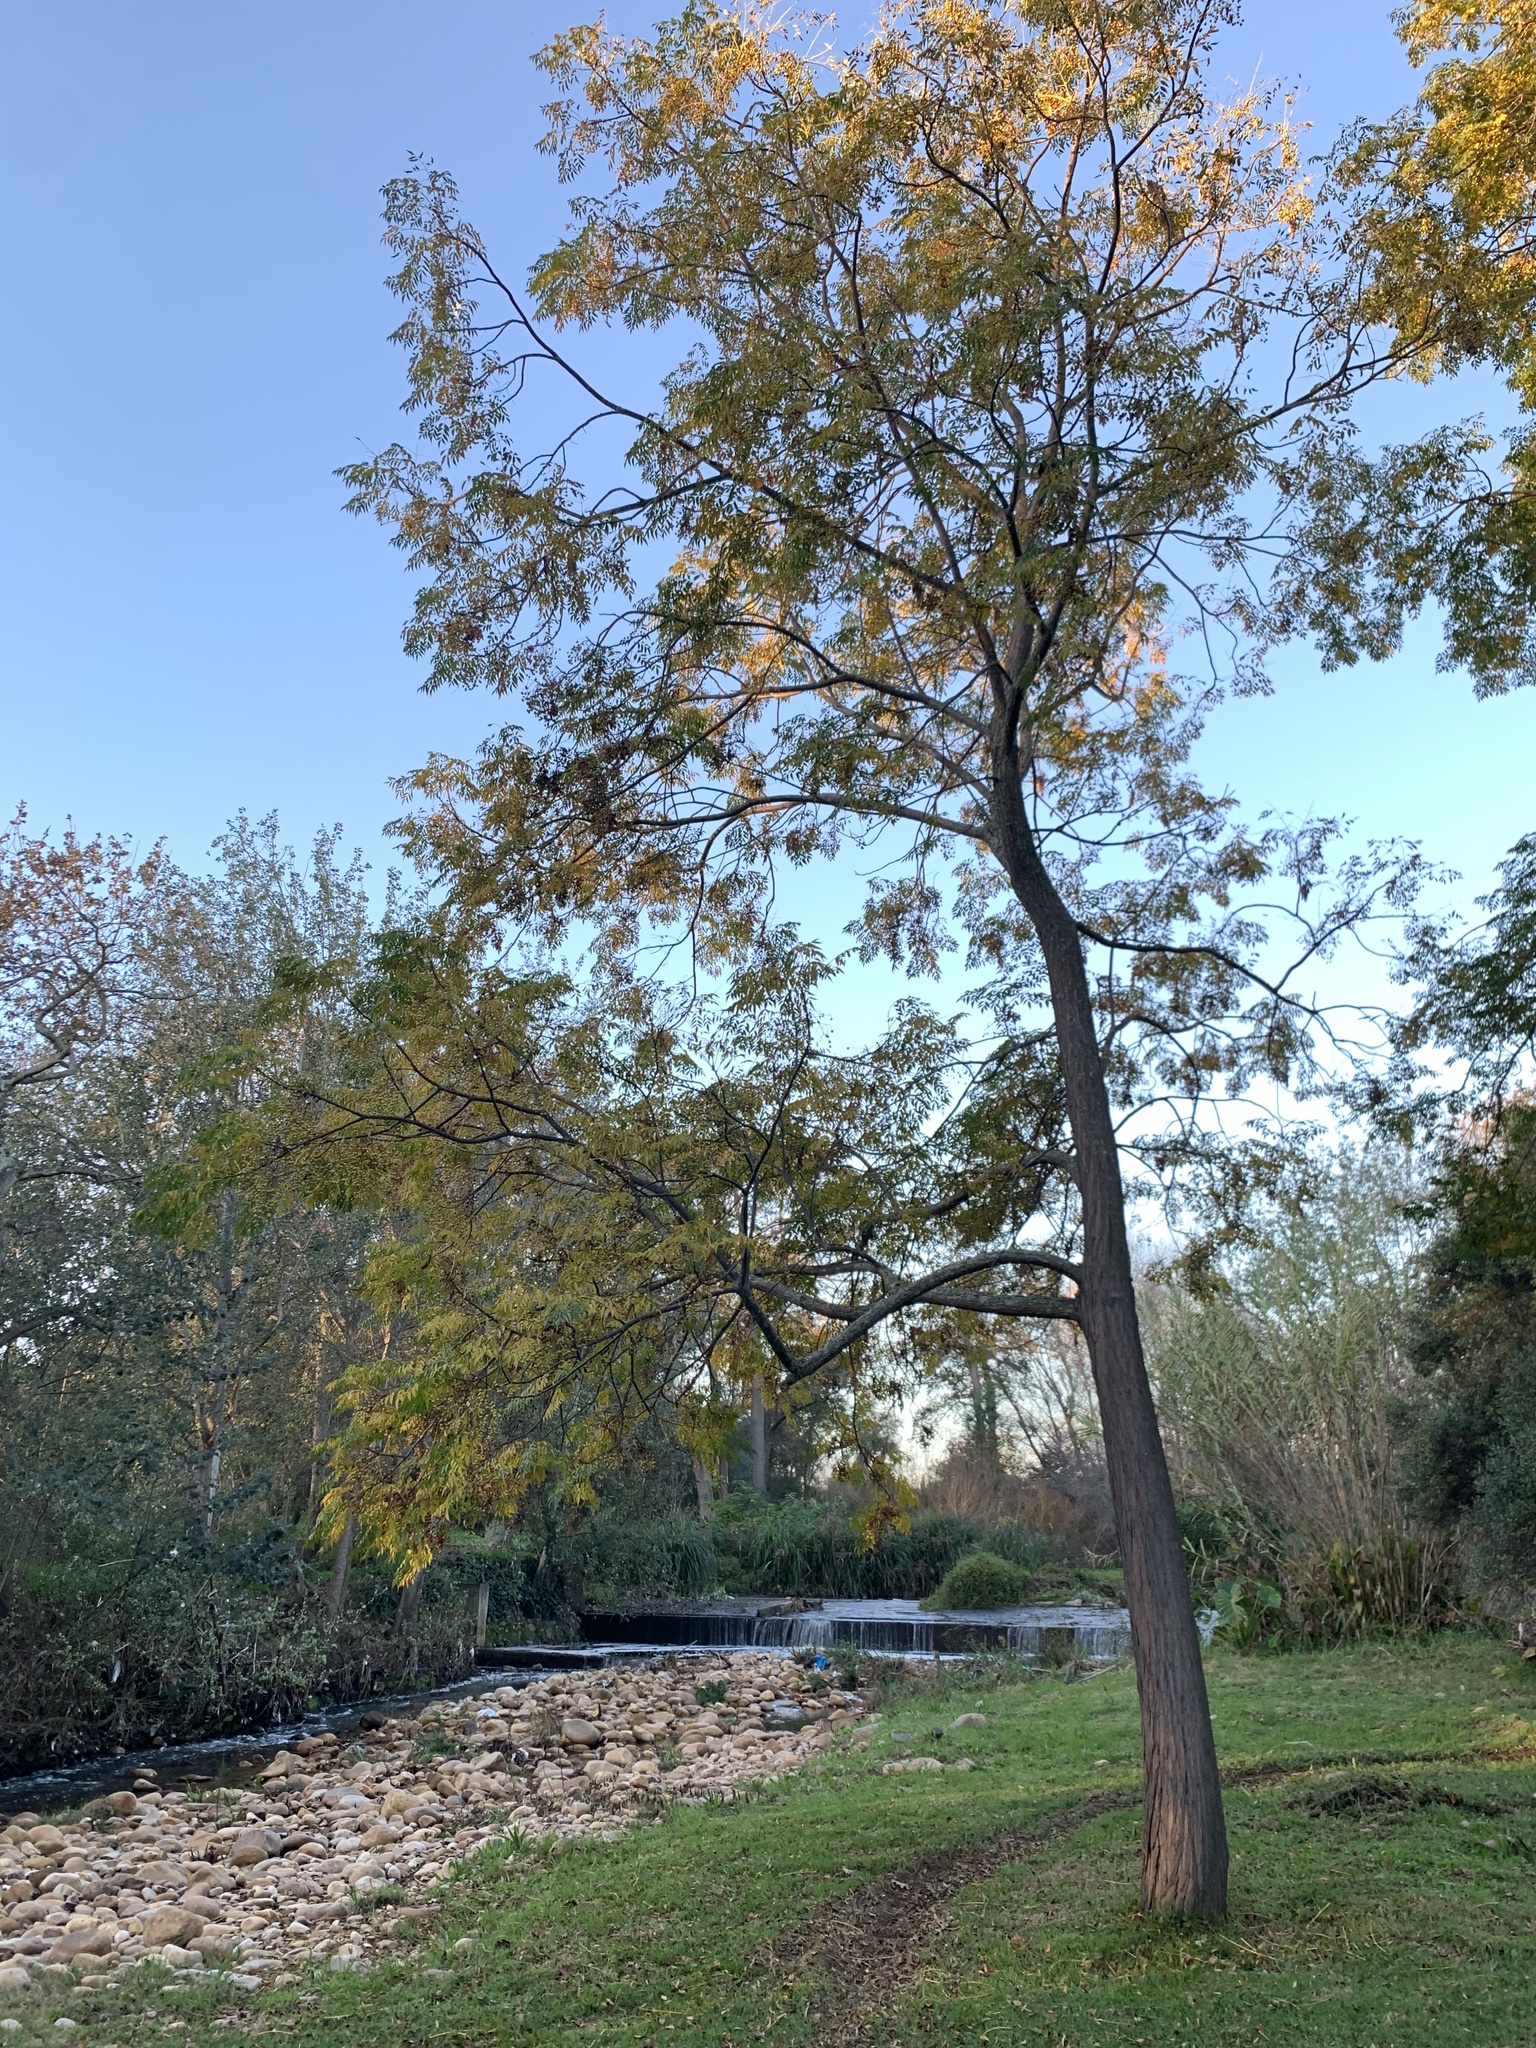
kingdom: Plantae
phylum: Tracheophyta
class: Magnoliopsida
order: Sapindales
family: Meliaceae
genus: Melia
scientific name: Melia azedarach
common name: Chinaberrytree
